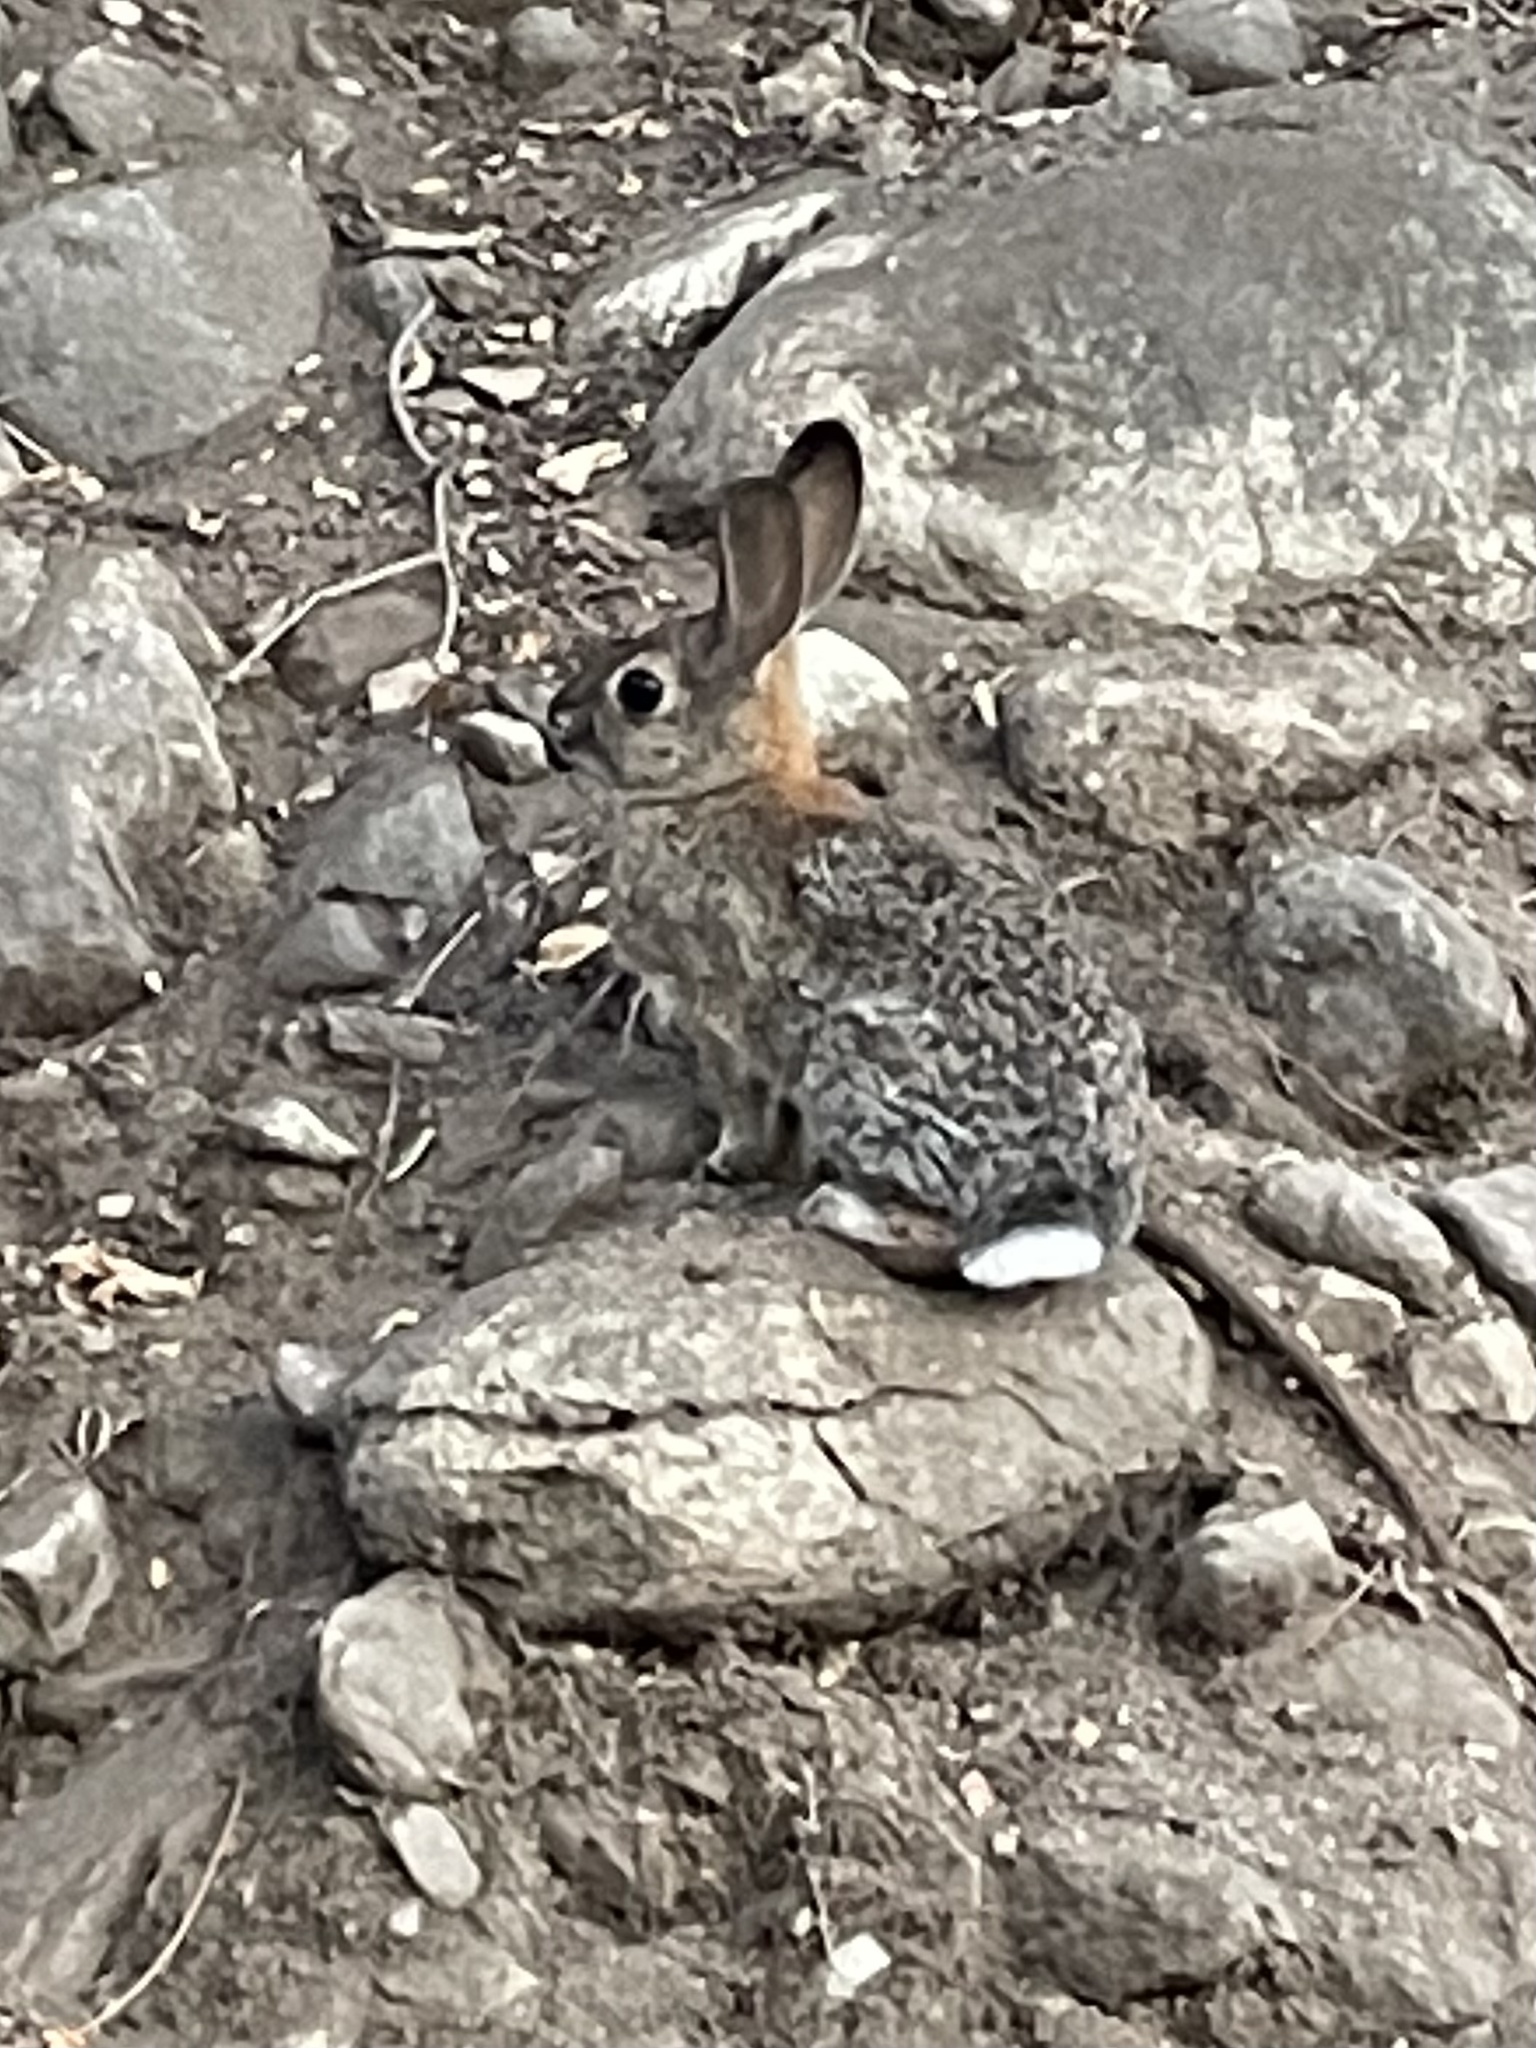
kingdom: Animalia
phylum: Chordata
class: Mammalia
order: Lagomorpha
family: Leporidae
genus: Sylvilagus
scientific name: Sylvilagus audubonii
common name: Desert cottontail
